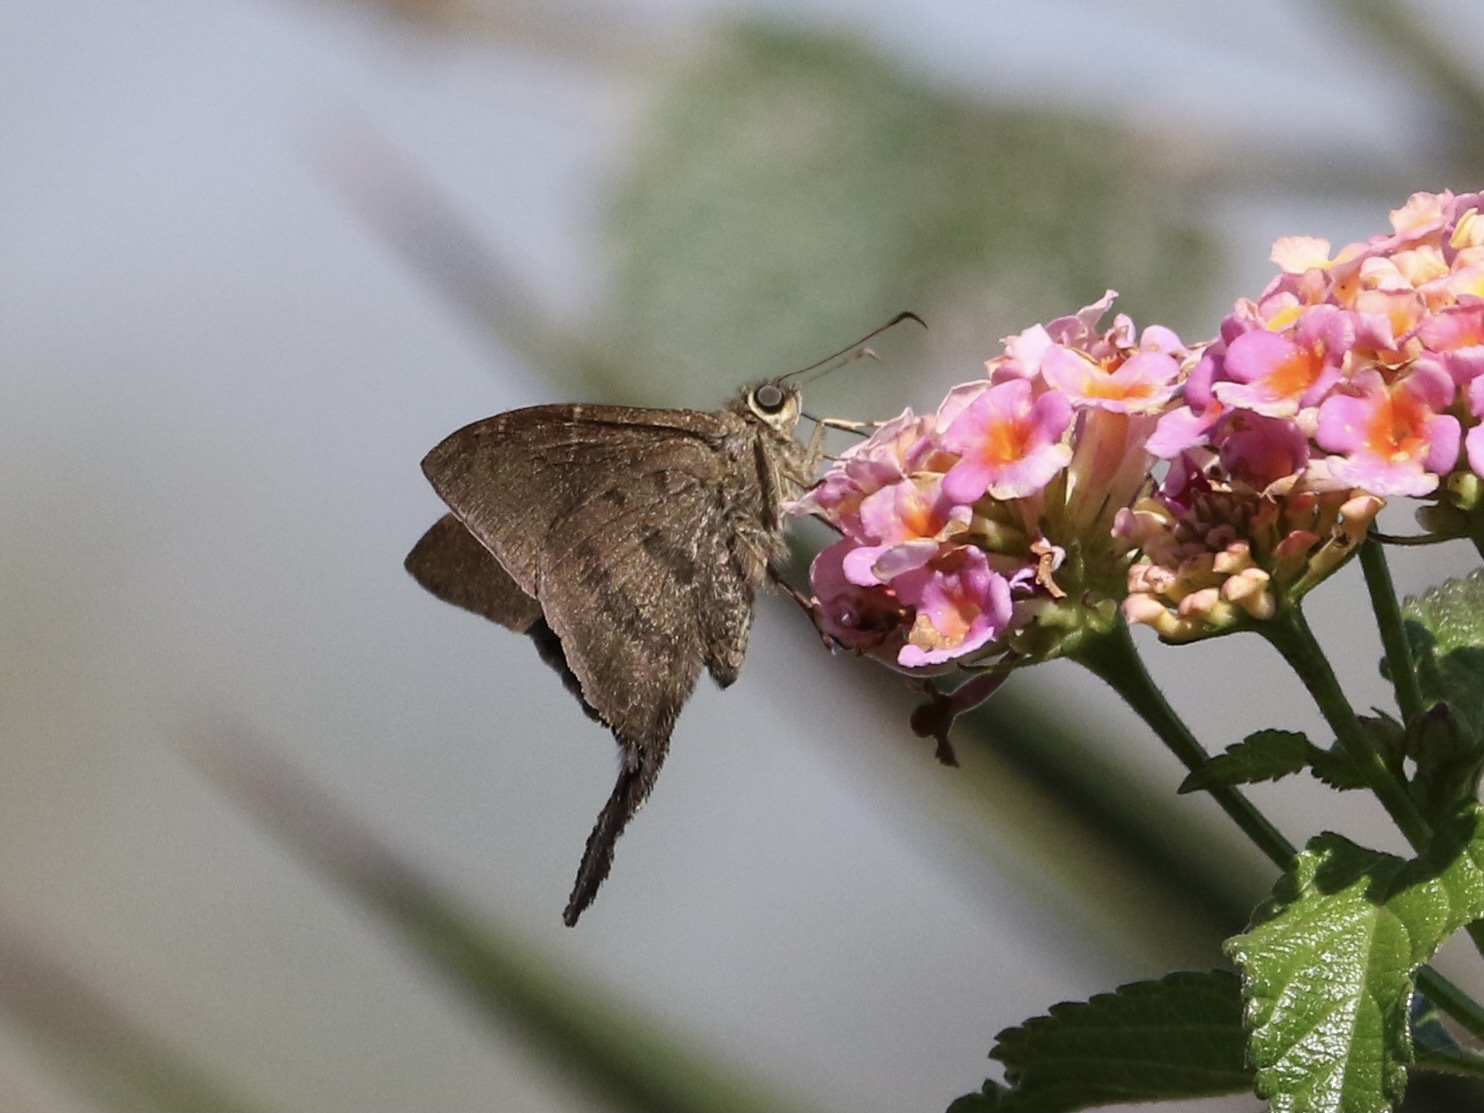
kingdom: Animalia
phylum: Arthropoda
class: Insecta
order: Lepidoptera
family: Hesperiidae
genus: Urbanus
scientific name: Urbanus procne
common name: Brown longtail
